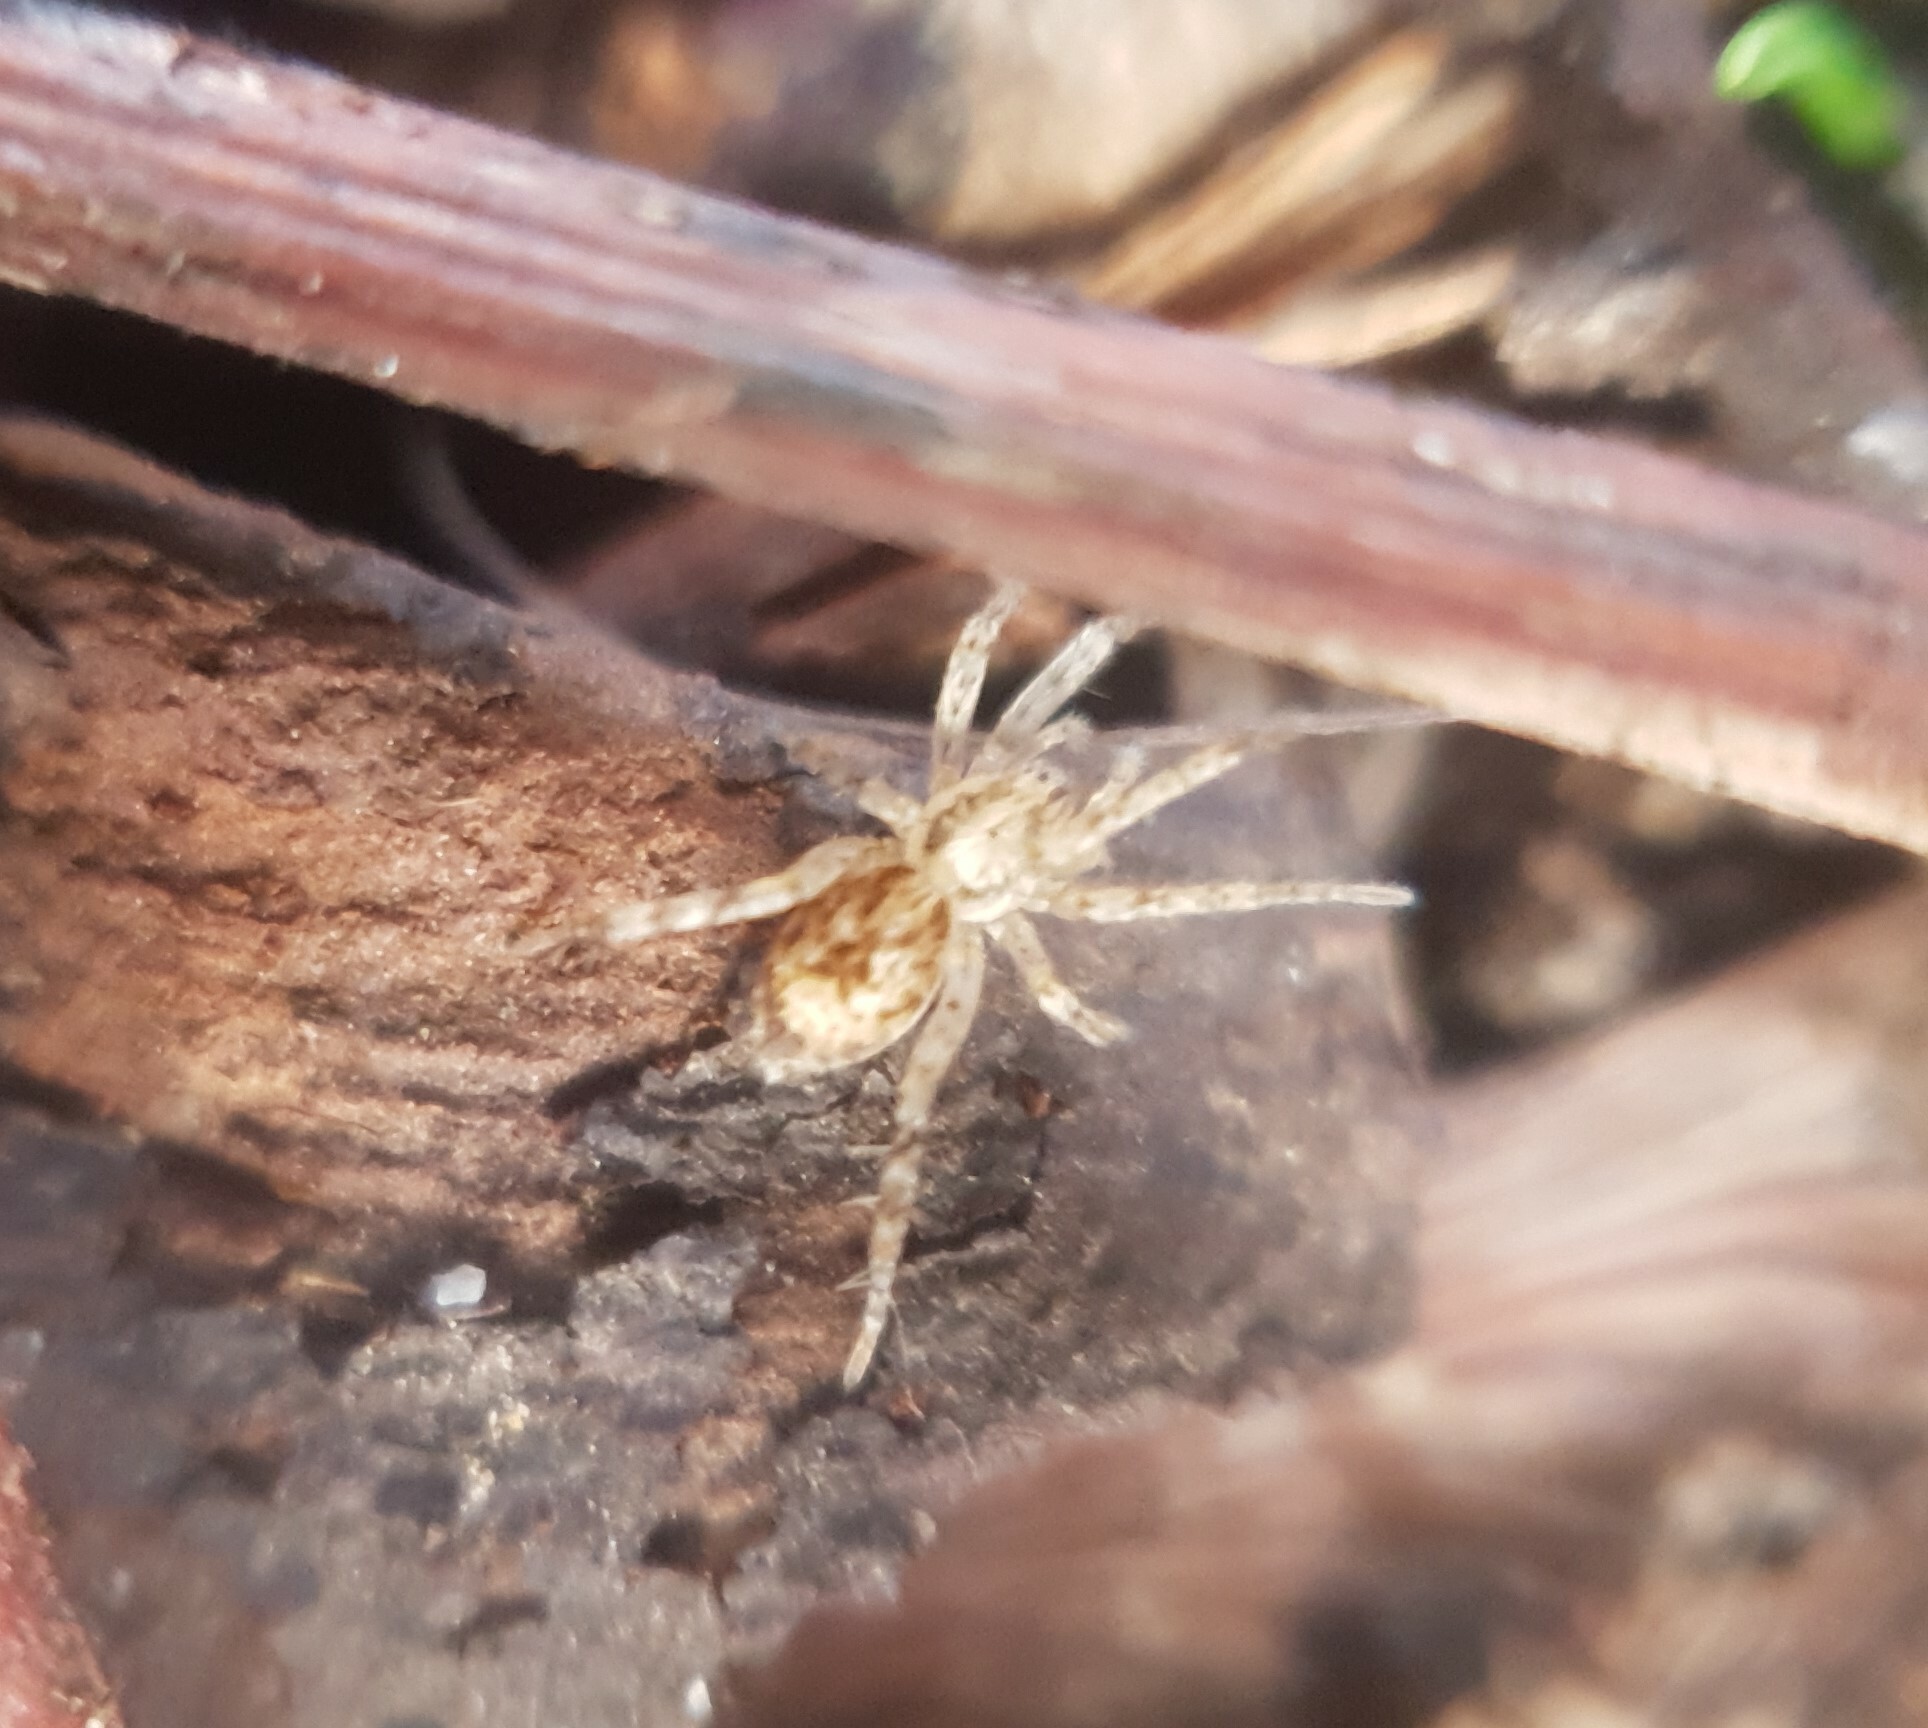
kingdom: Animalia
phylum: Arthropoda
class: Arachnida
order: Araneae
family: Anyphaenidae
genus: Anyphaena
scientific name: Anyphaena accentuata
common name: Buzzing spider
